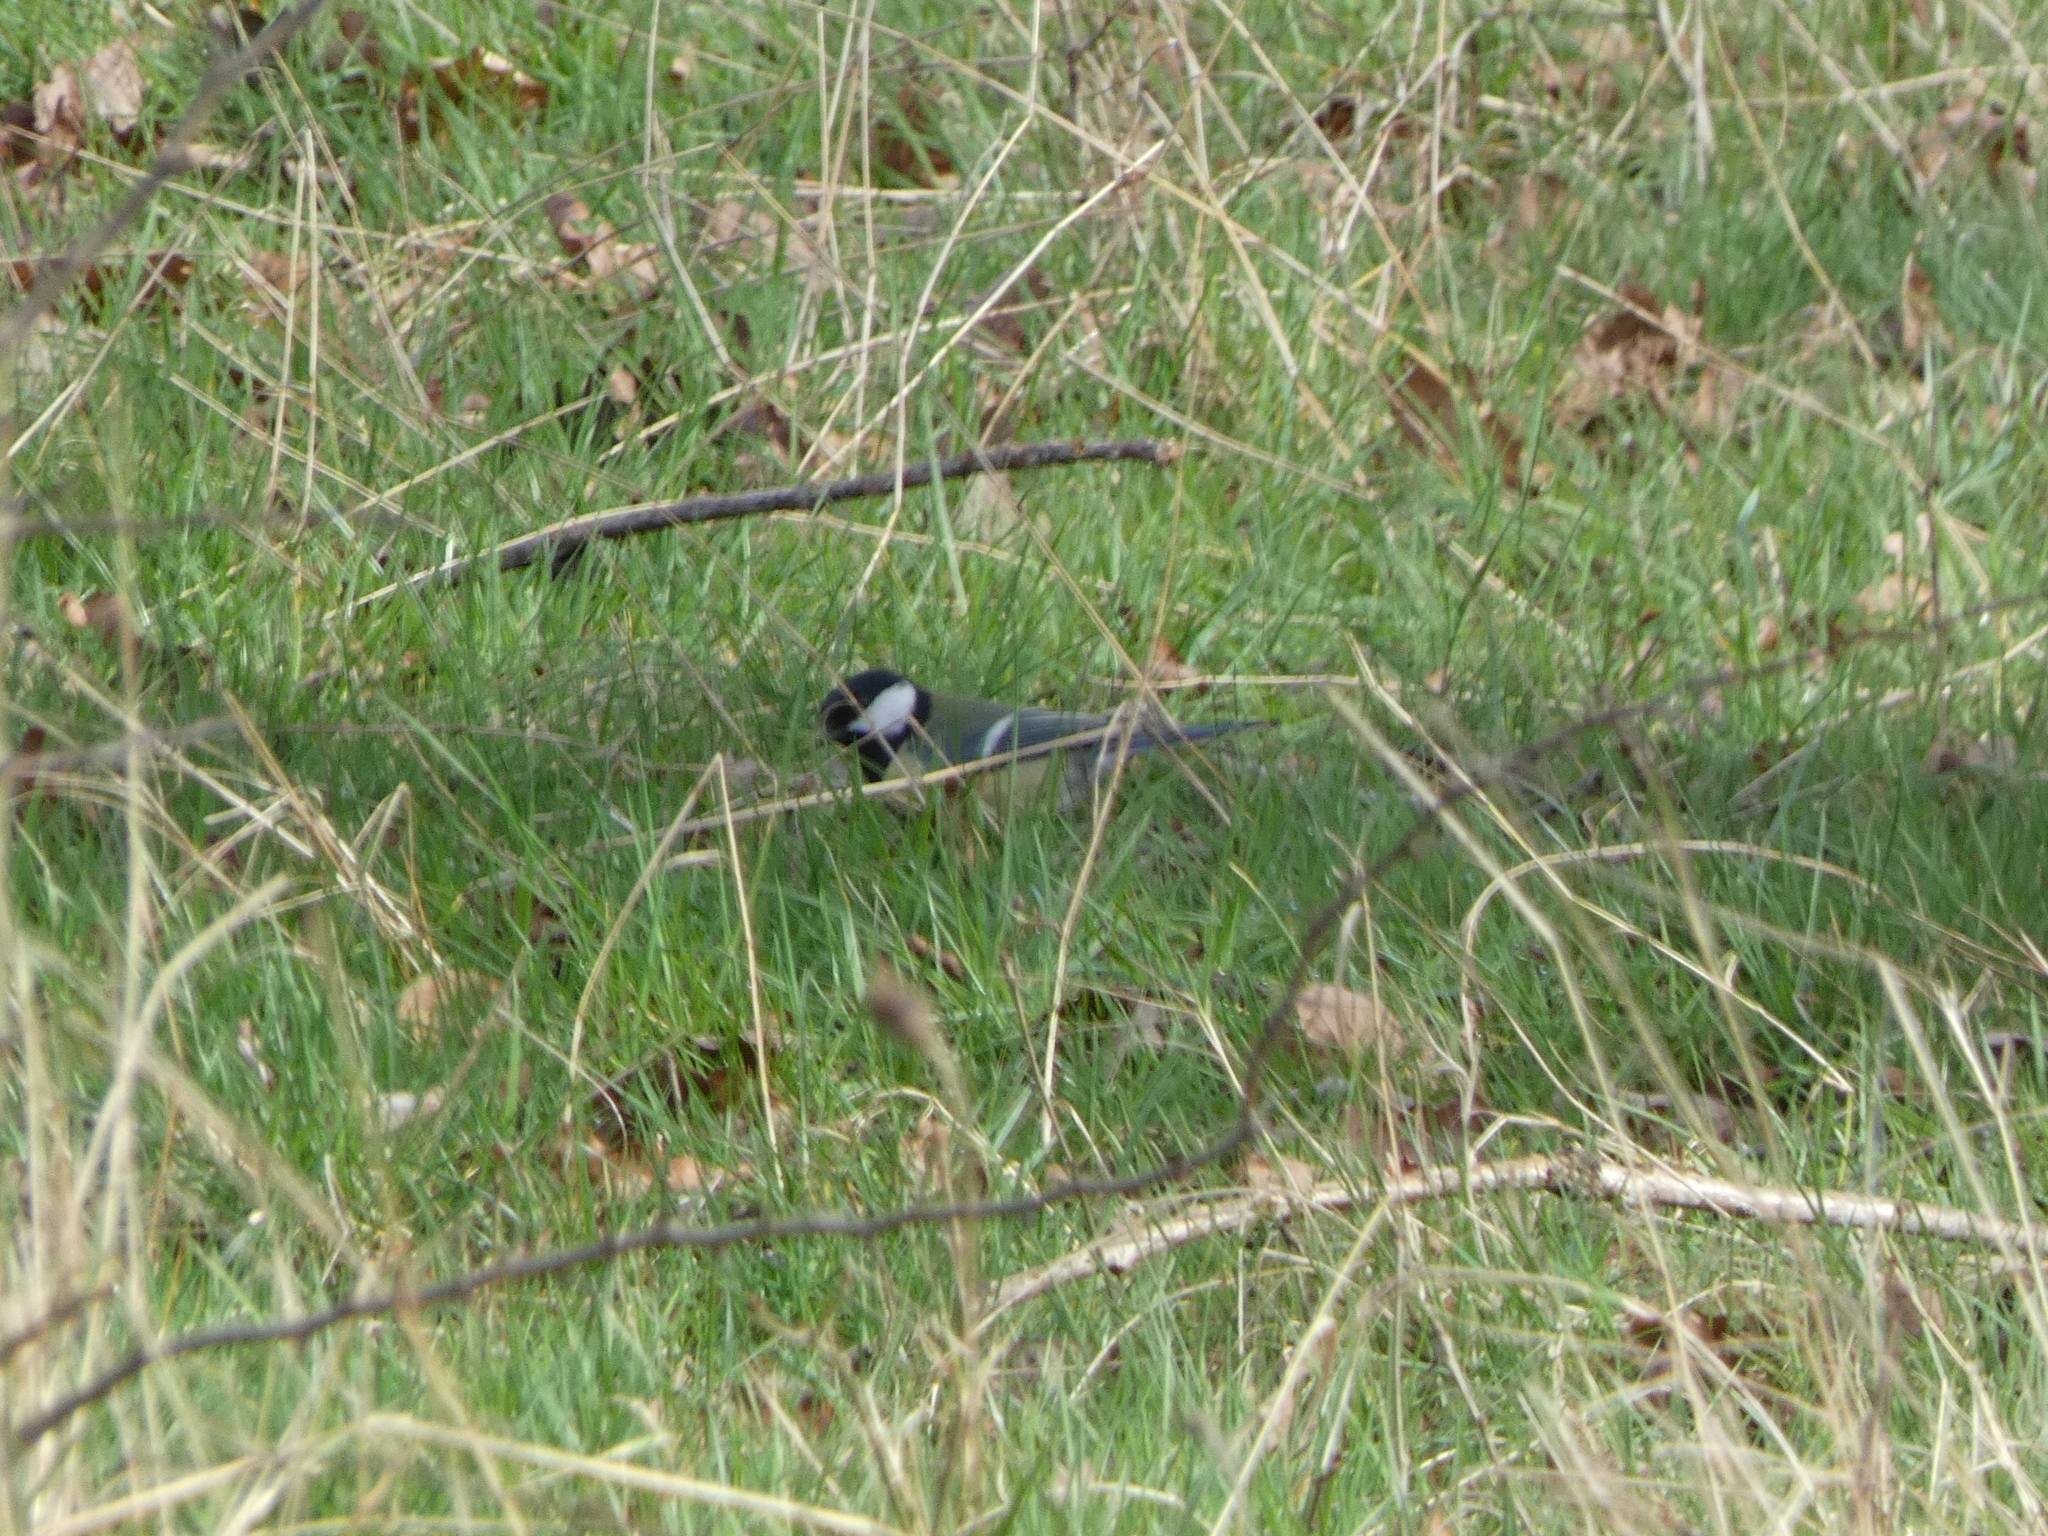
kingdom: Animalia
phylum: Chordata
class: Aves
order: Passeriformes
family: Paridae
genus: Parus
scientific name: Parus major
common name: Great tit
